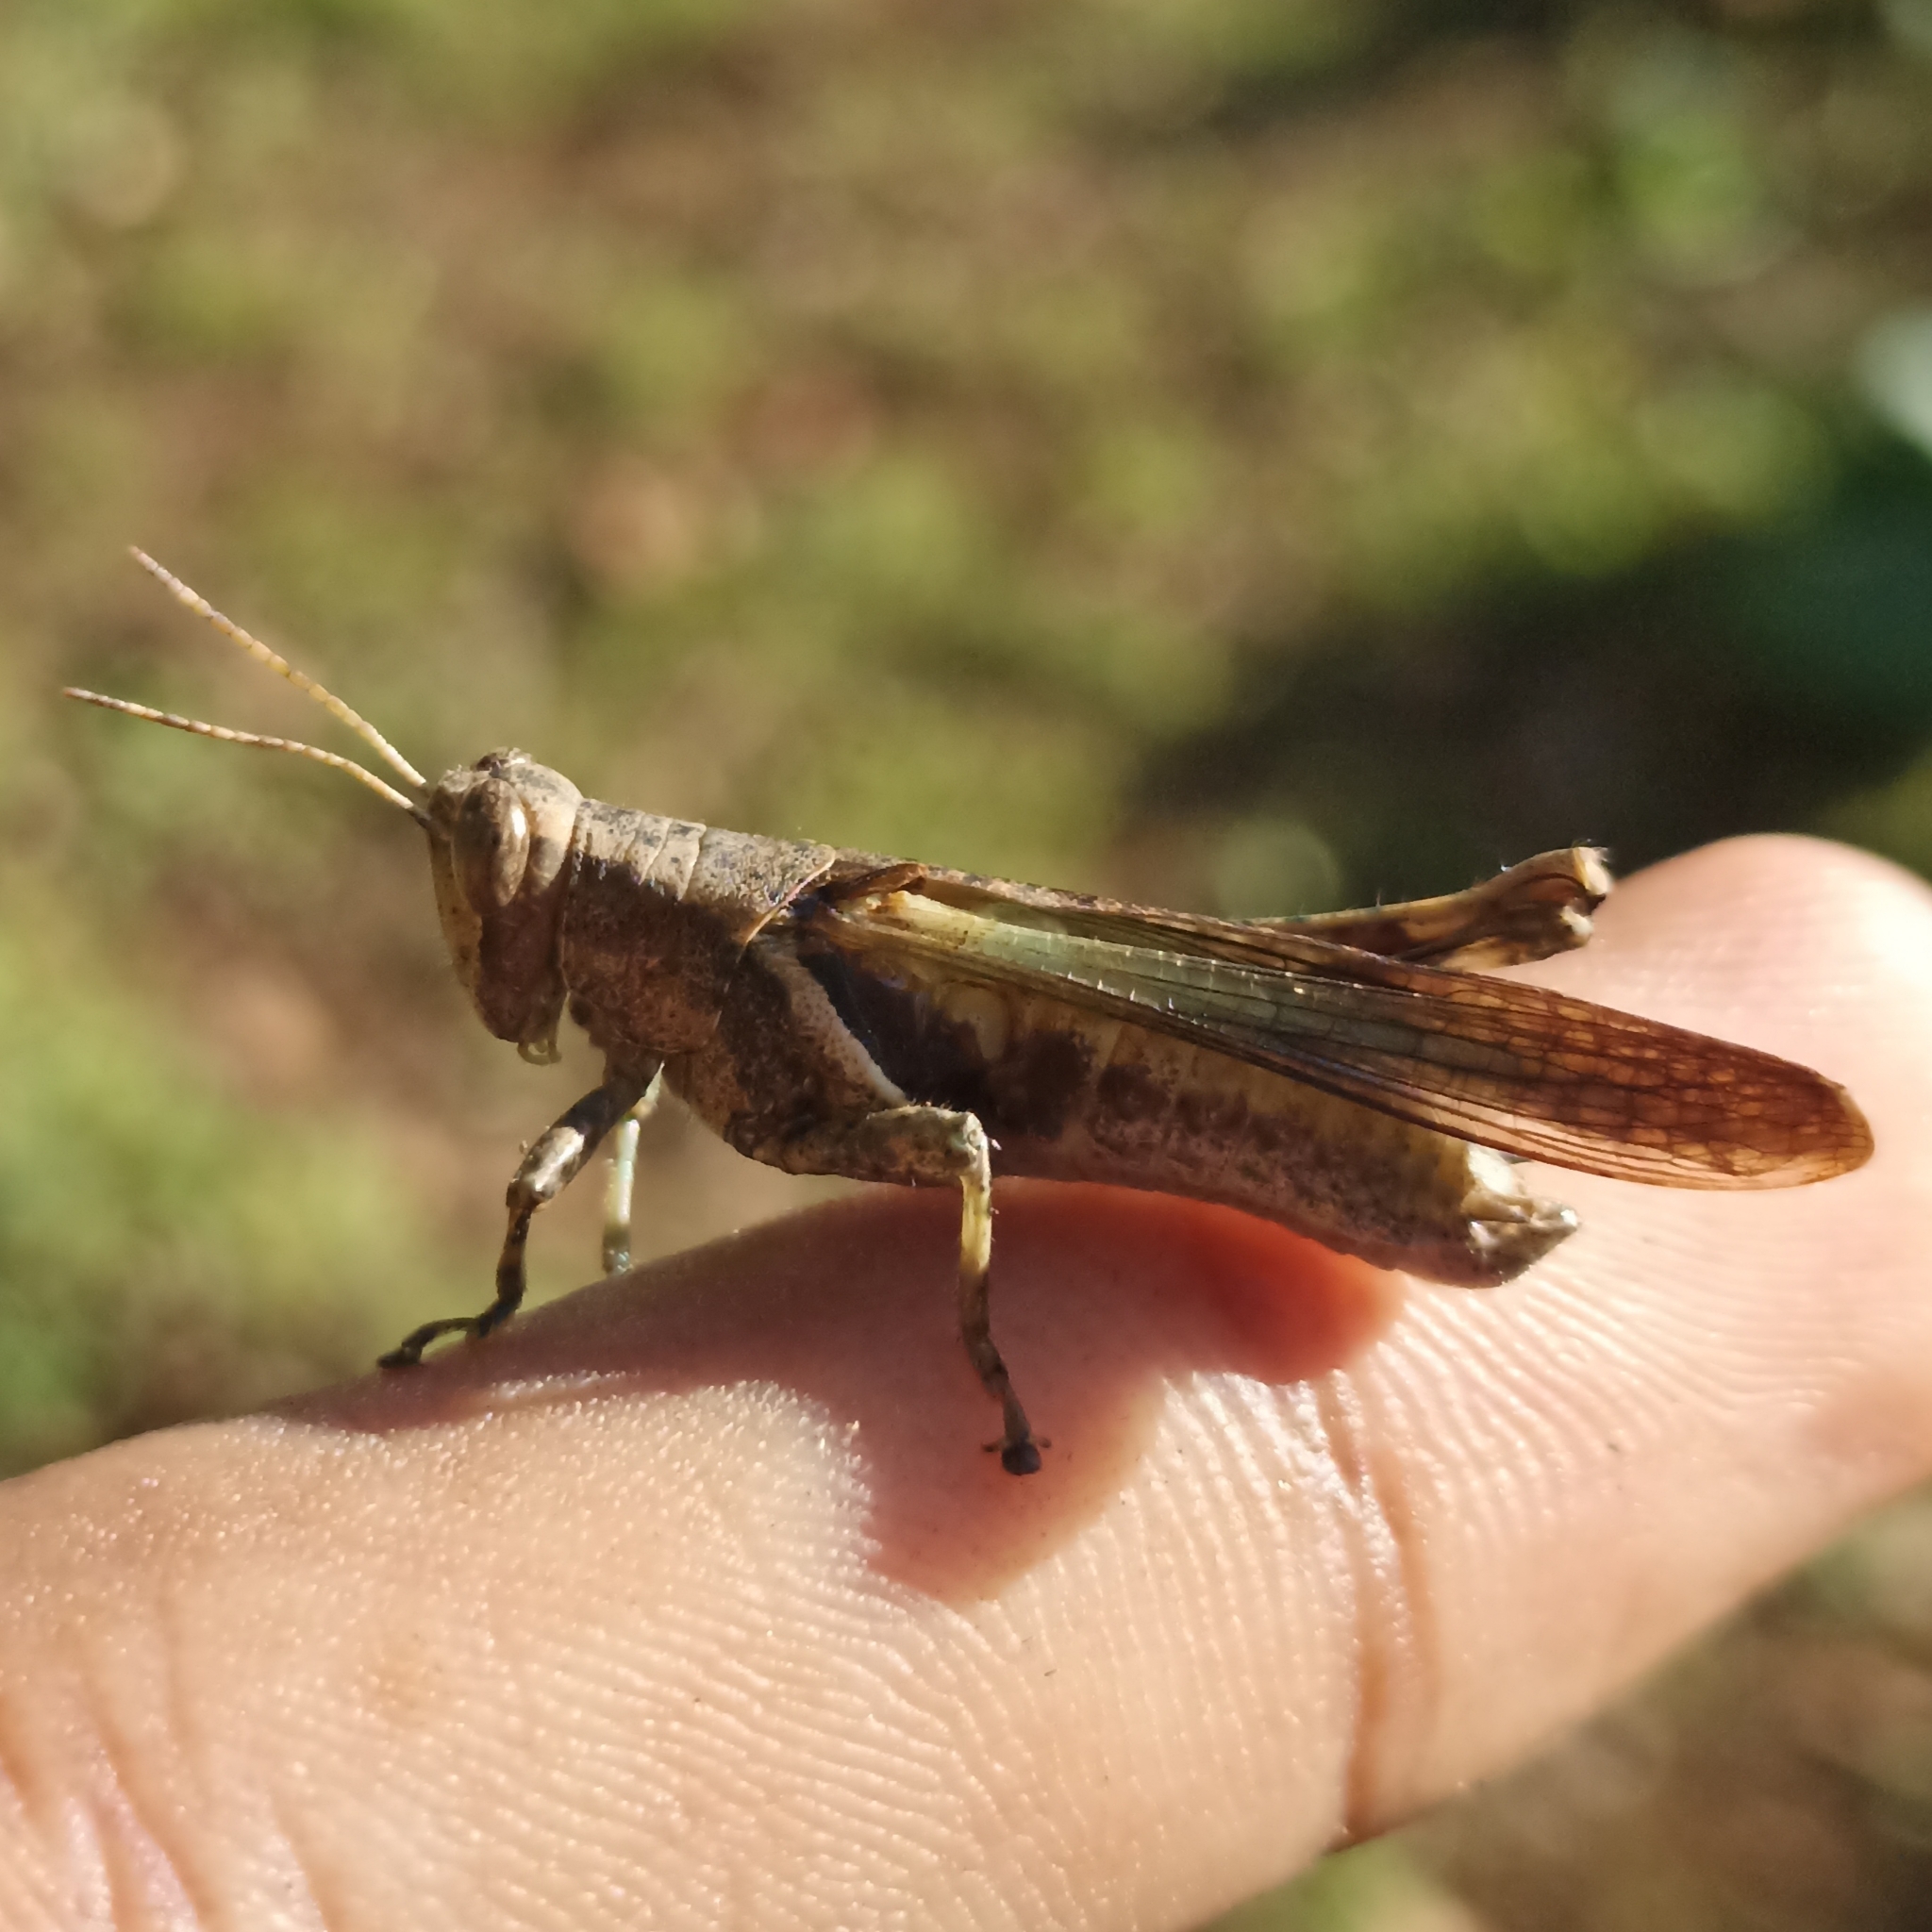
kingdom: Animalia
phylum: Arthropoda
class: Insecta
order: Orthoptera
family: Acrididae
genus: Abracris
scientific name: Abracris flavolineata
